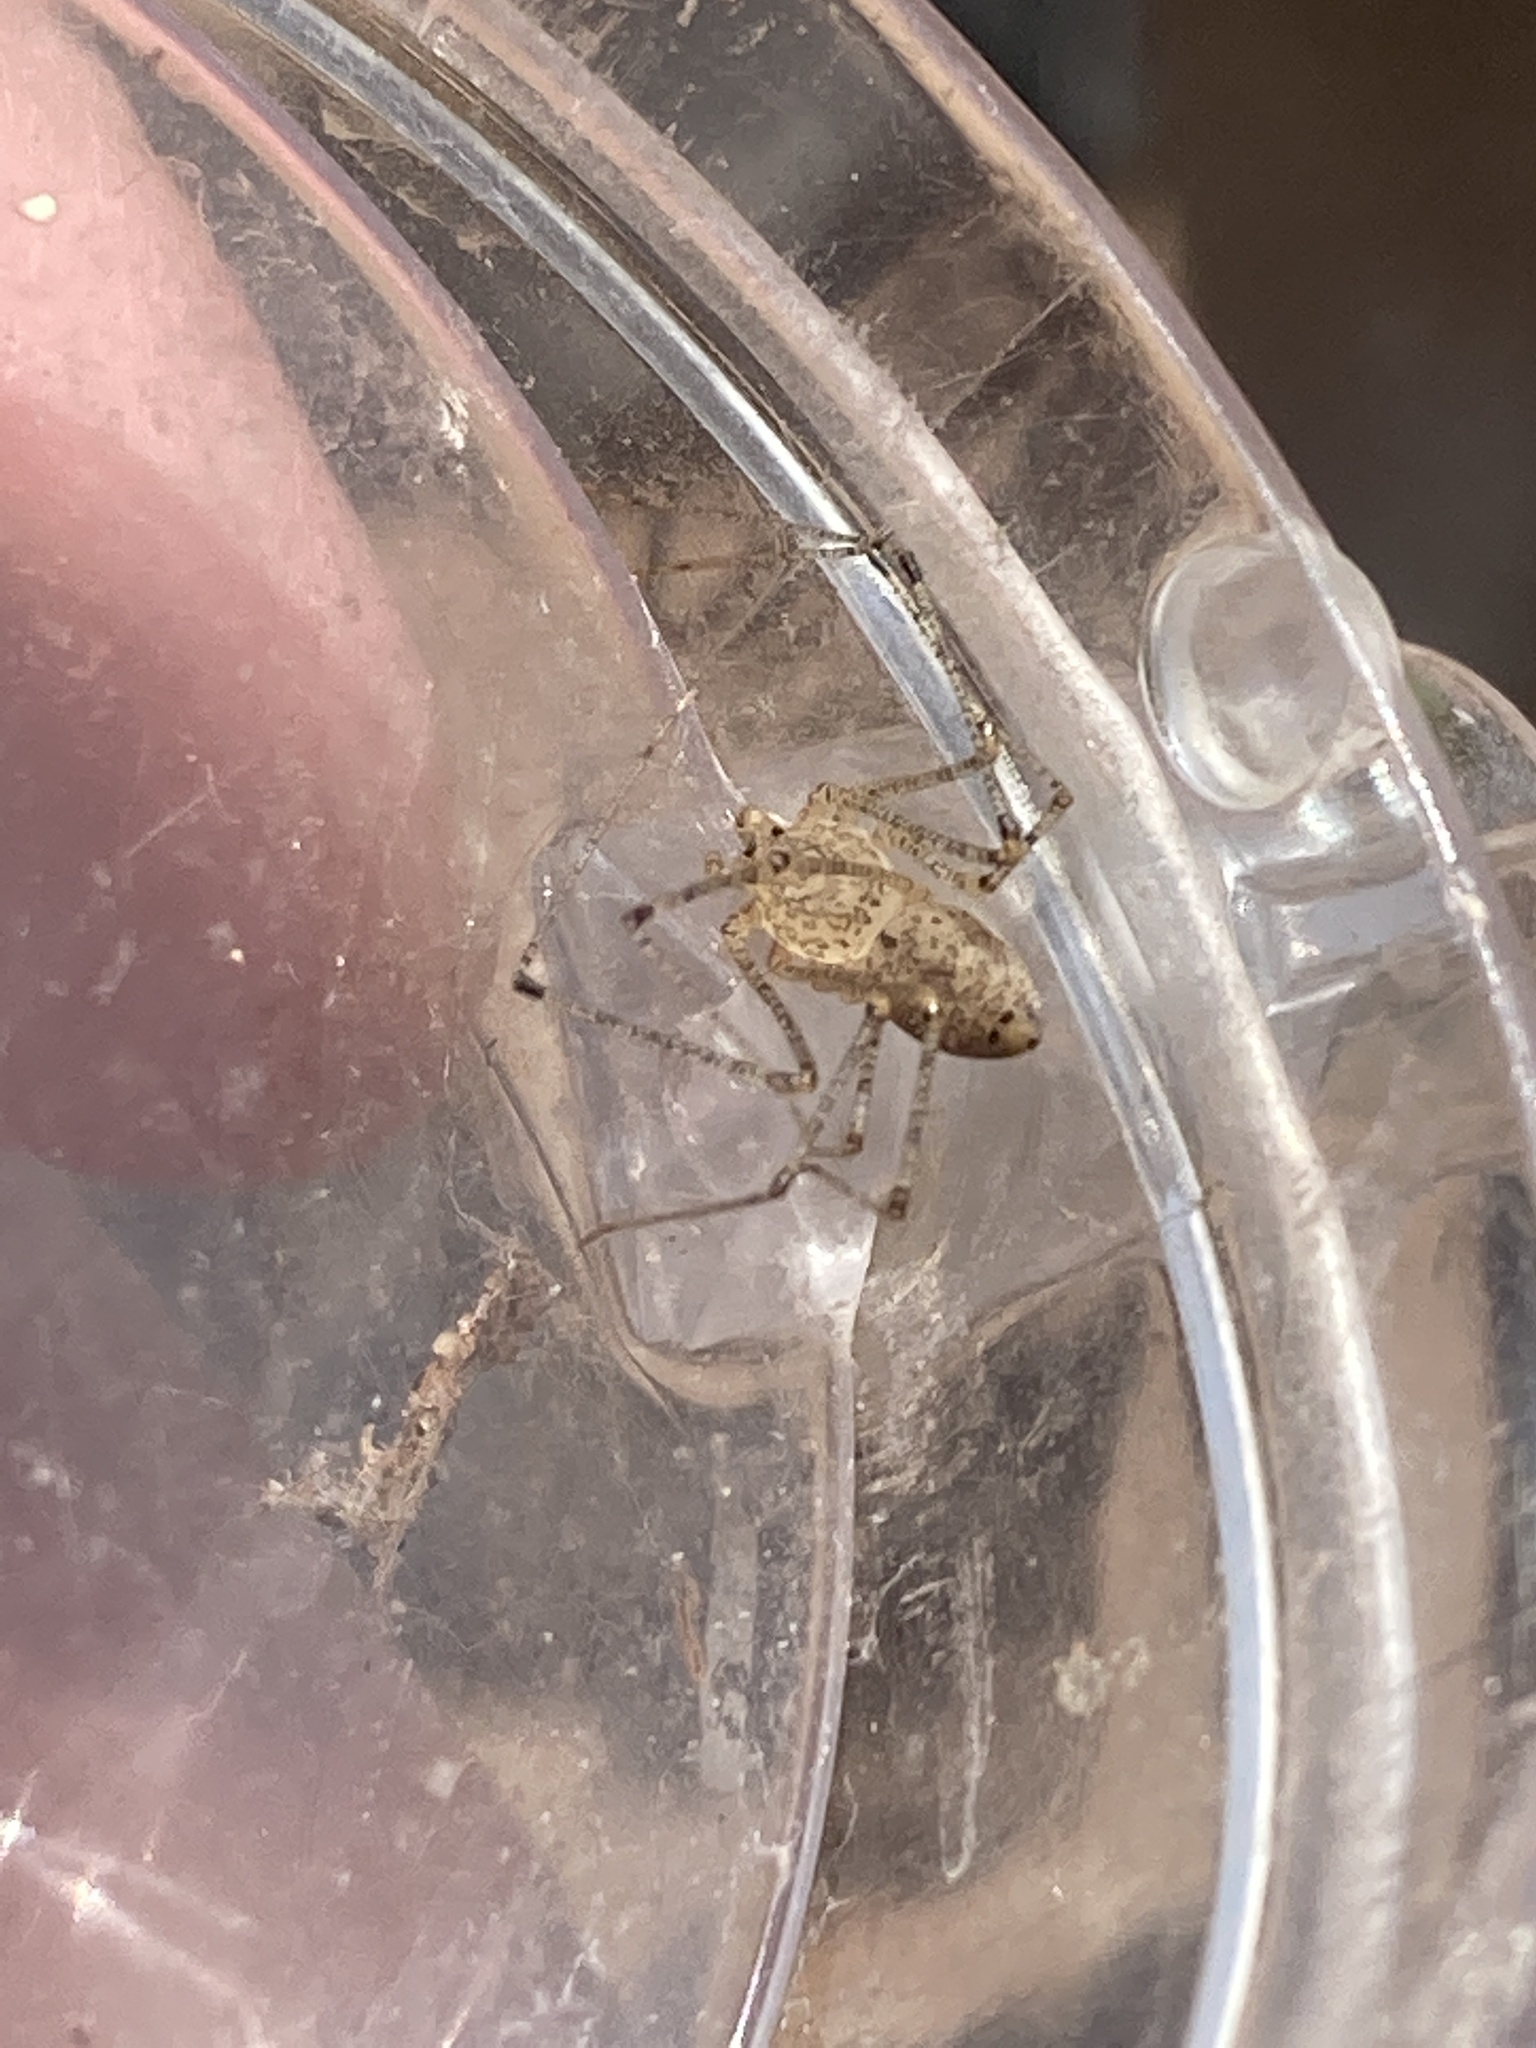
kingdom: Animalia
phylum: Arthropoda
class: Arachnida
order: Araneae
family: Scytodidae
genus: Scytodes
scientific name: Scytodes atlacoya
